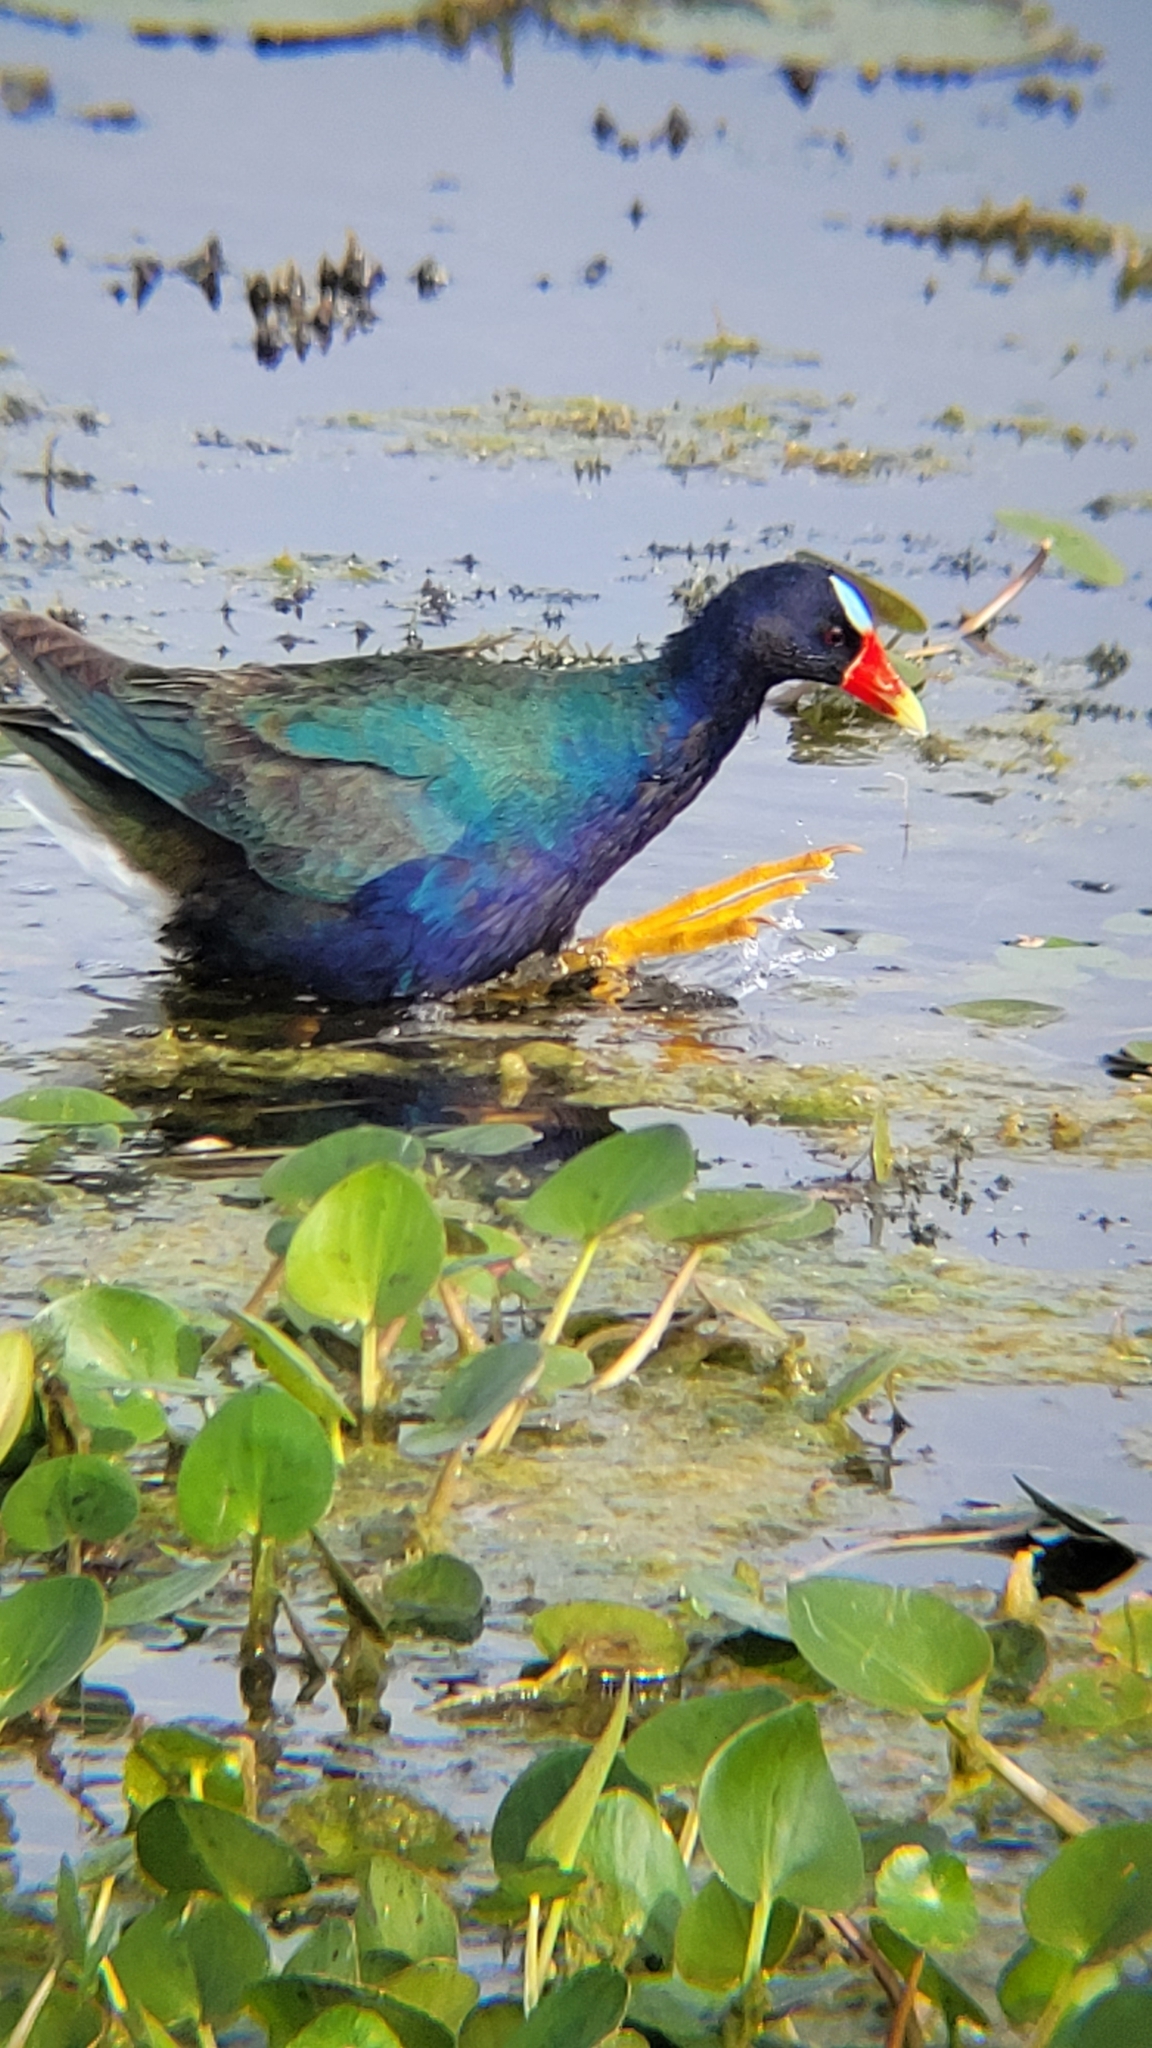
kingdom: Animalia
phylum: Chordata
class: Aves
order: Gruiformes
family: Rallidae
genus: Porphyrio
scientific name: Porphyrio martinica
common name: Purple gallinule
